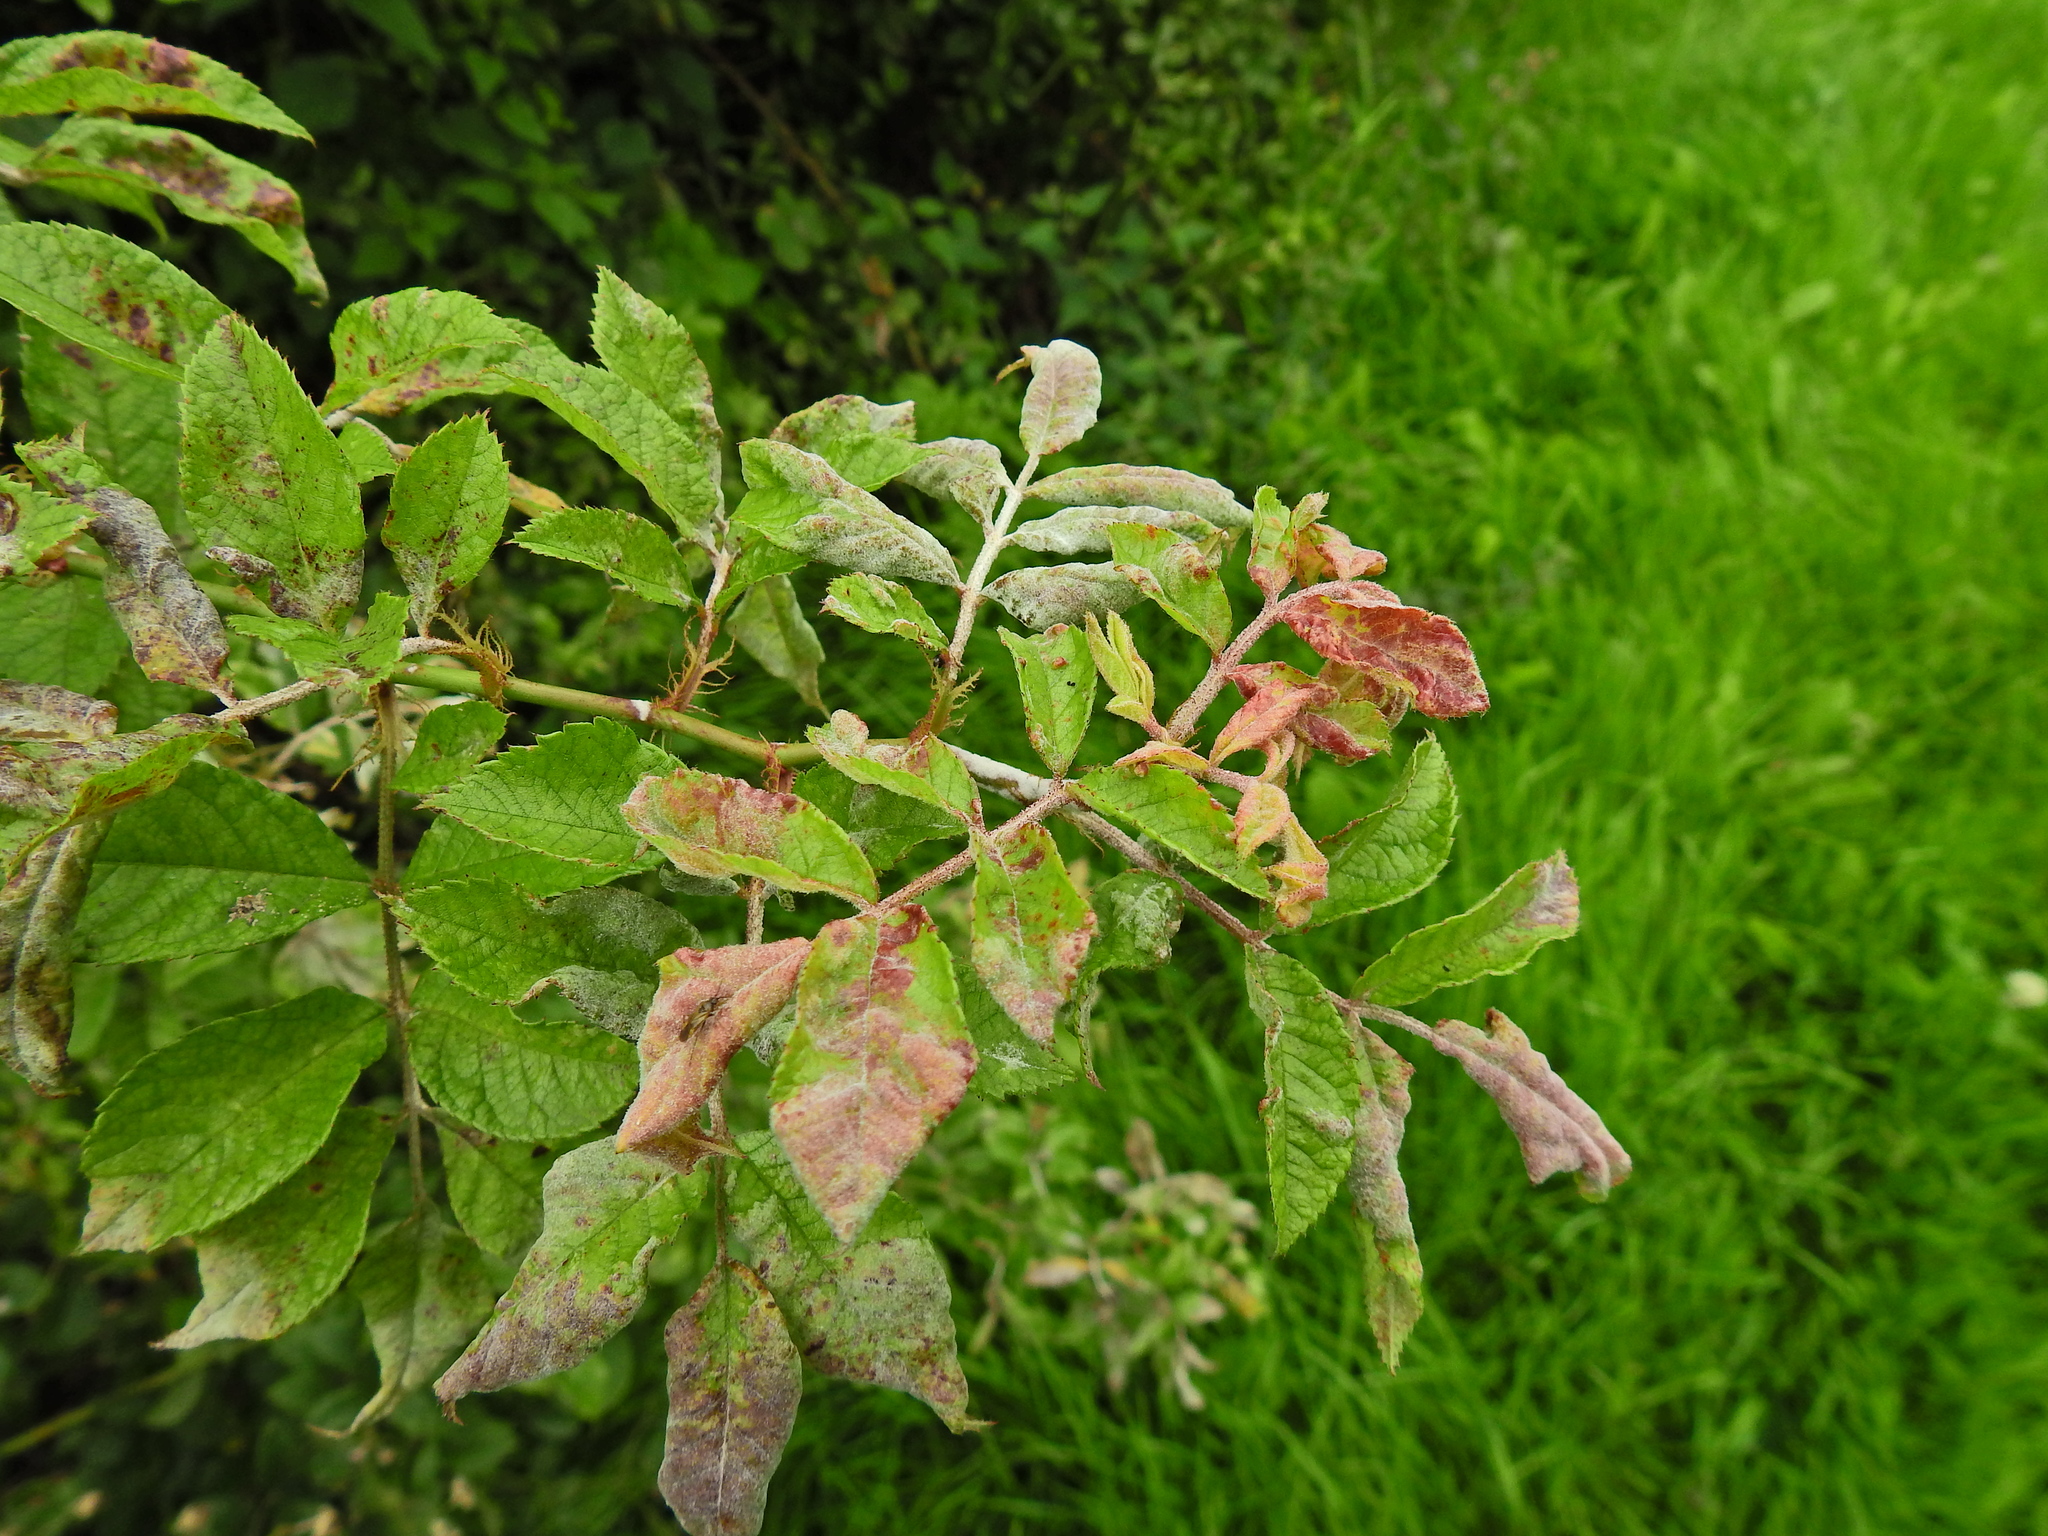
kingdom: Fungi
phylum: Ascomycota
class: Leotiomycetes
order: Helotiales
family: Erysiphaceae
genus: Podosphaera
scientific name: Podosphaera pannosa
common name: Rose mildew
